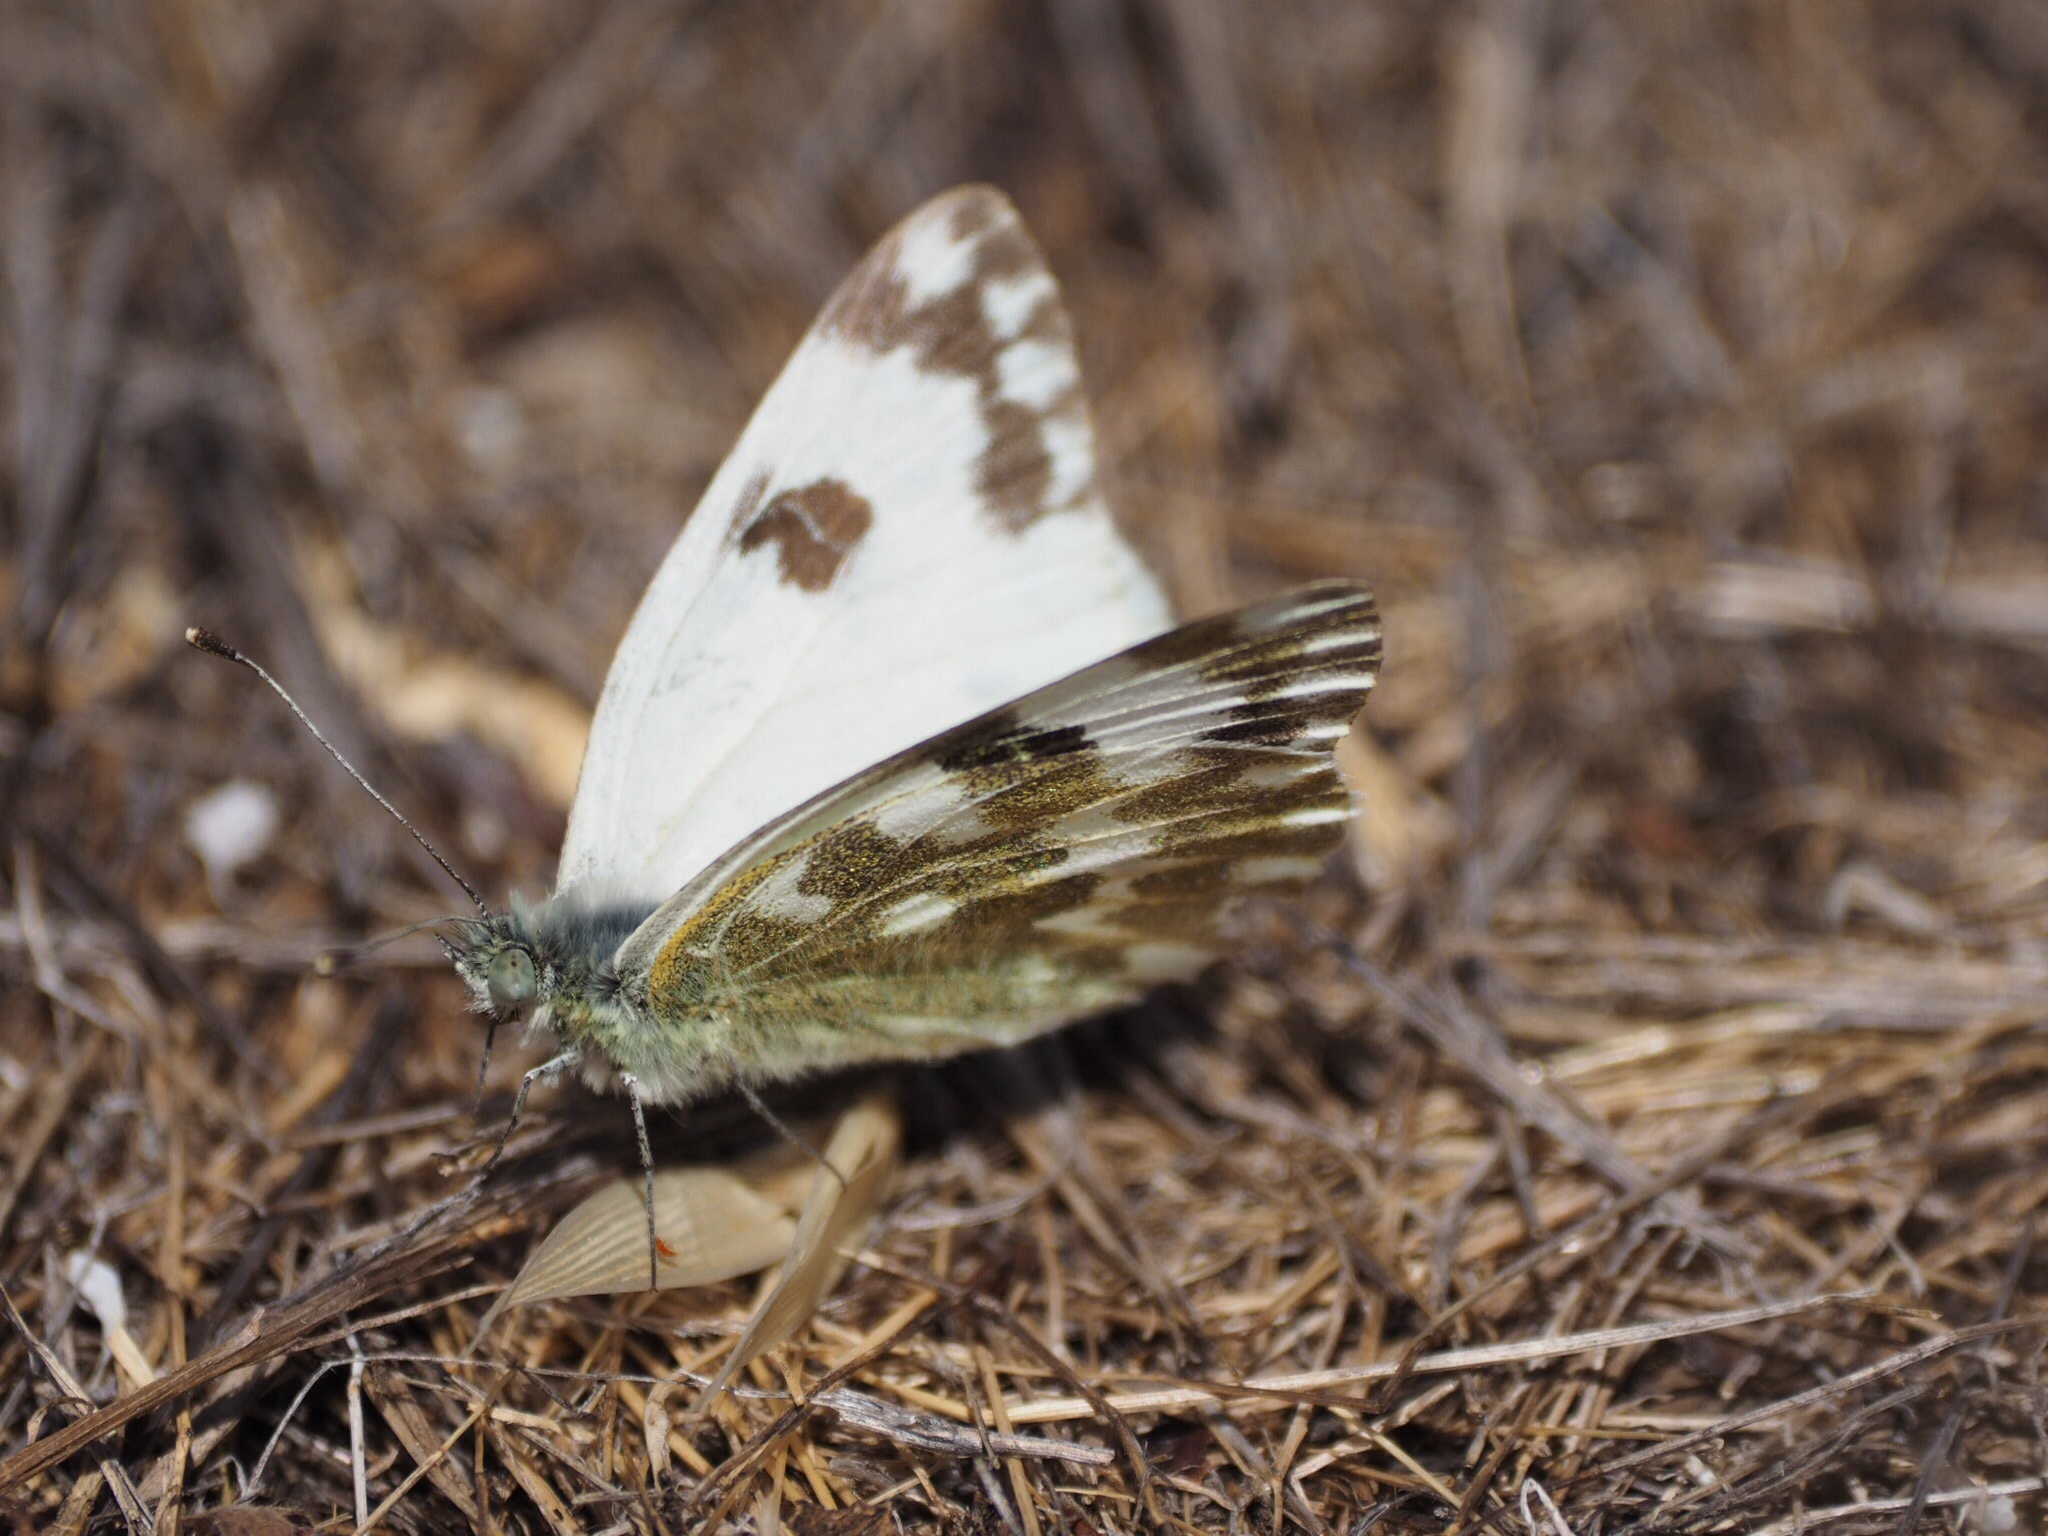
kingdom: Animalia
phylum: Arthropoda
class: Insecta
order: Lepidoptera
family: Pieridae
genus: Pontia
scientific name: Pontia daplidice
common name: Bath white
